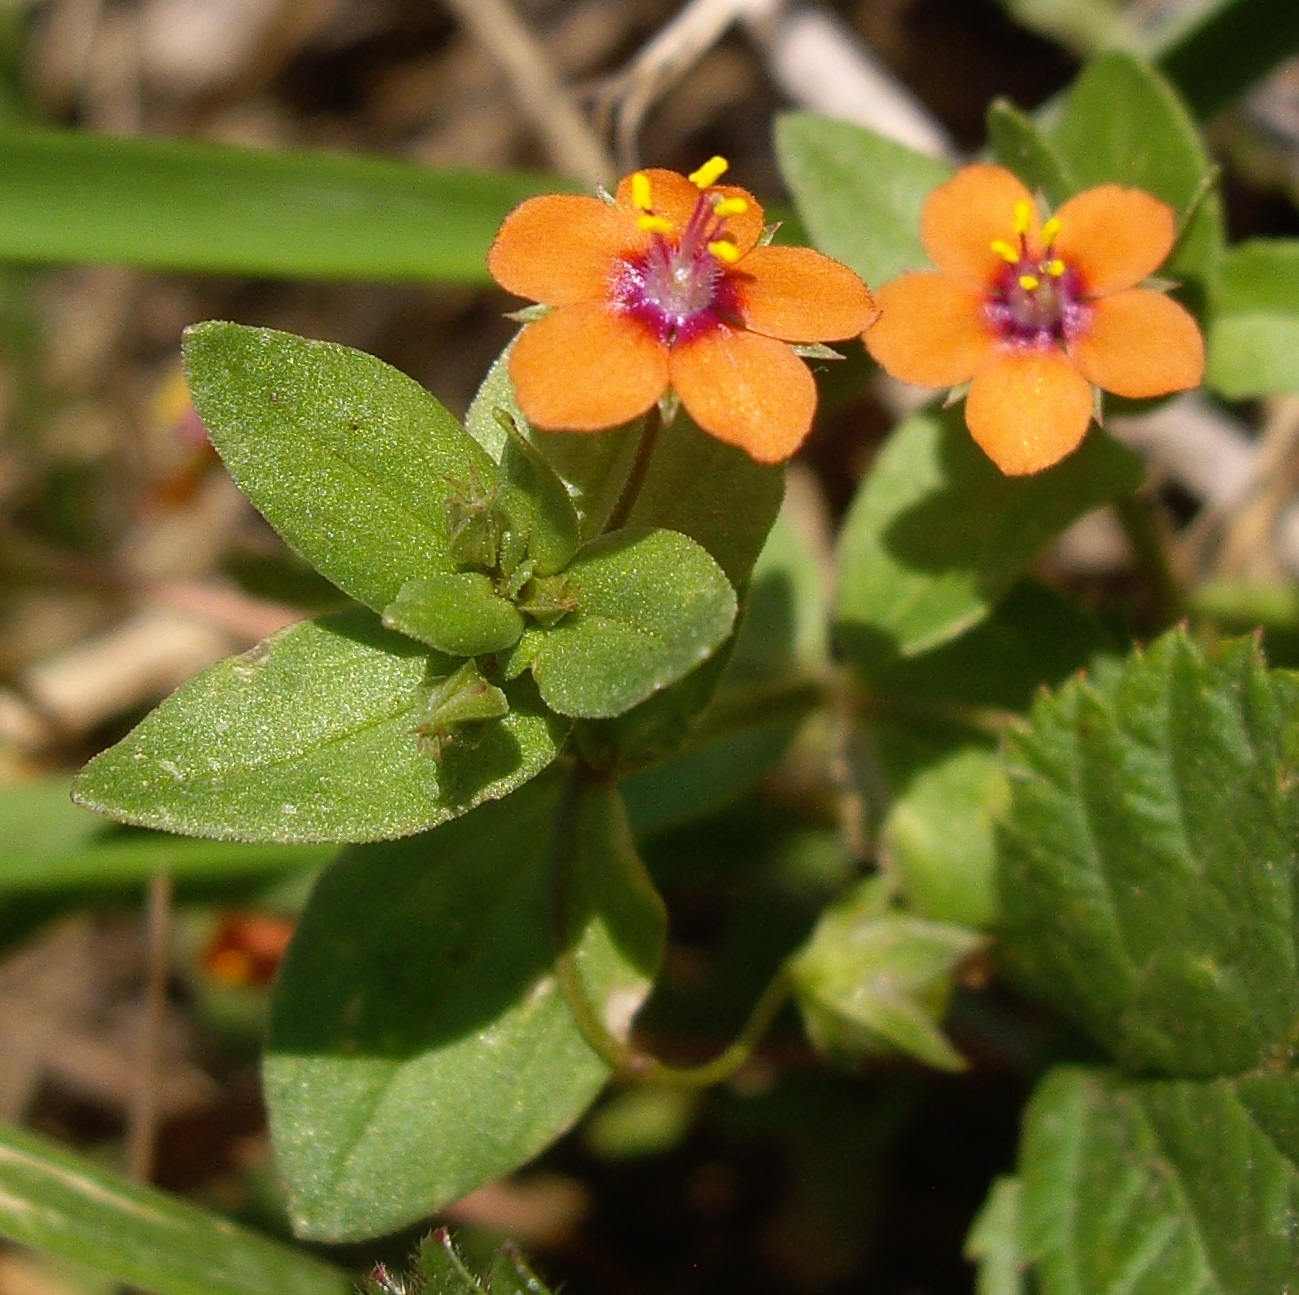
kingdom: Plantae
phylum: Tracheophyta
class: Magnoliopsida
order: Ericales
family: Primulaceae
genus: Lysimachia
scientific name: Lysimachia arvensis
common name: Scarlet pimpernel
